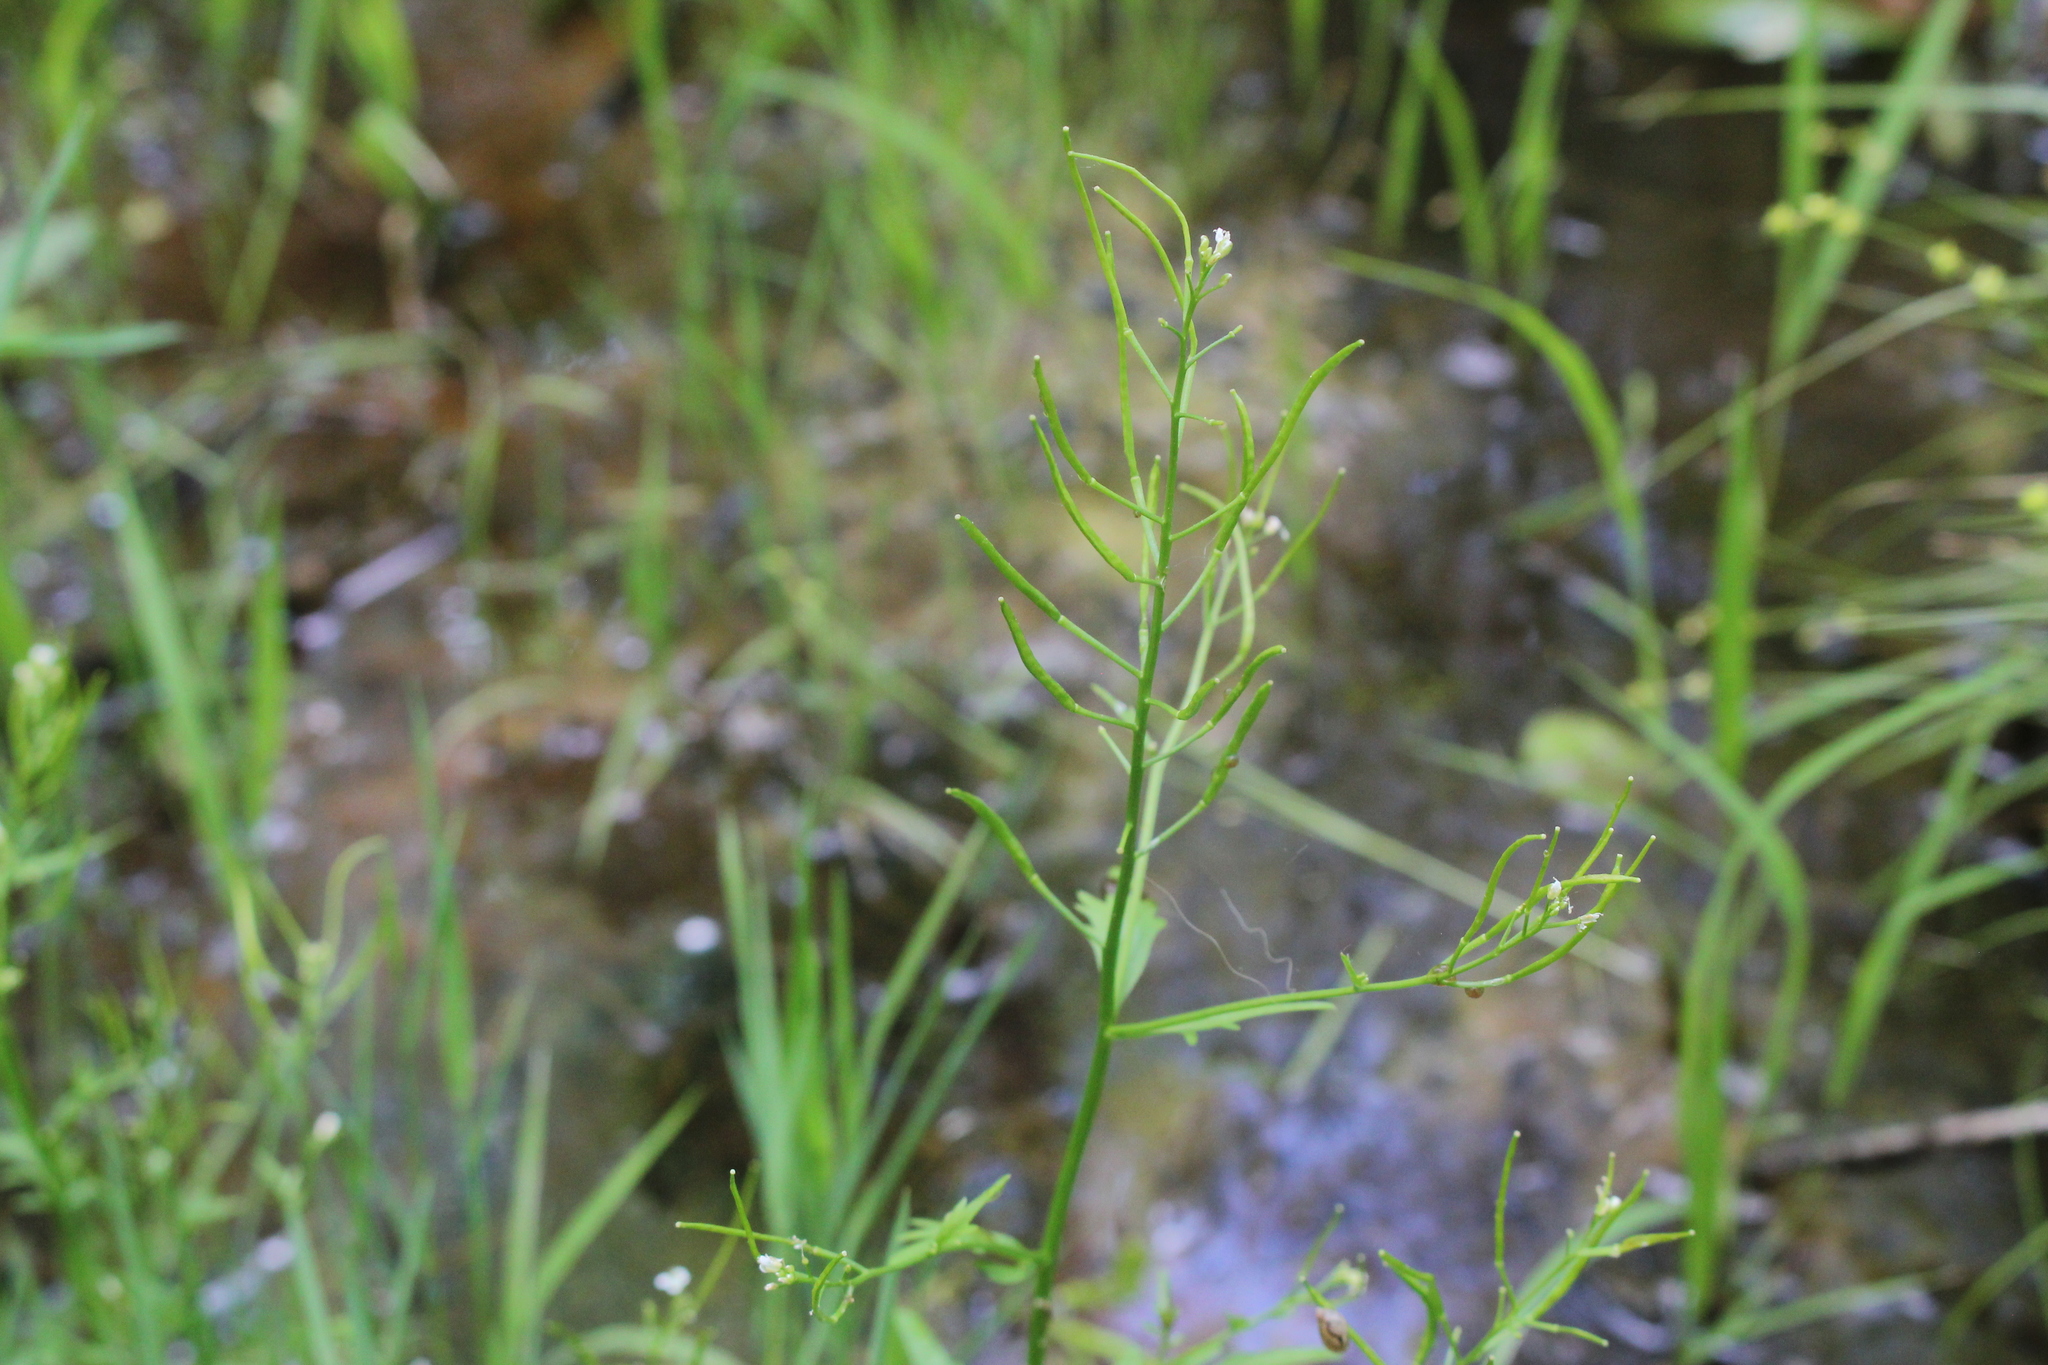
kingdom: Plantae
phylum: Tracheophyta
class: Magnoliopsida
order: Brassicales
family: Brassicaceae
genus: Cardamine
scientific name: Cardamine pensylvanica
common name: Pennsylvania bittercress
